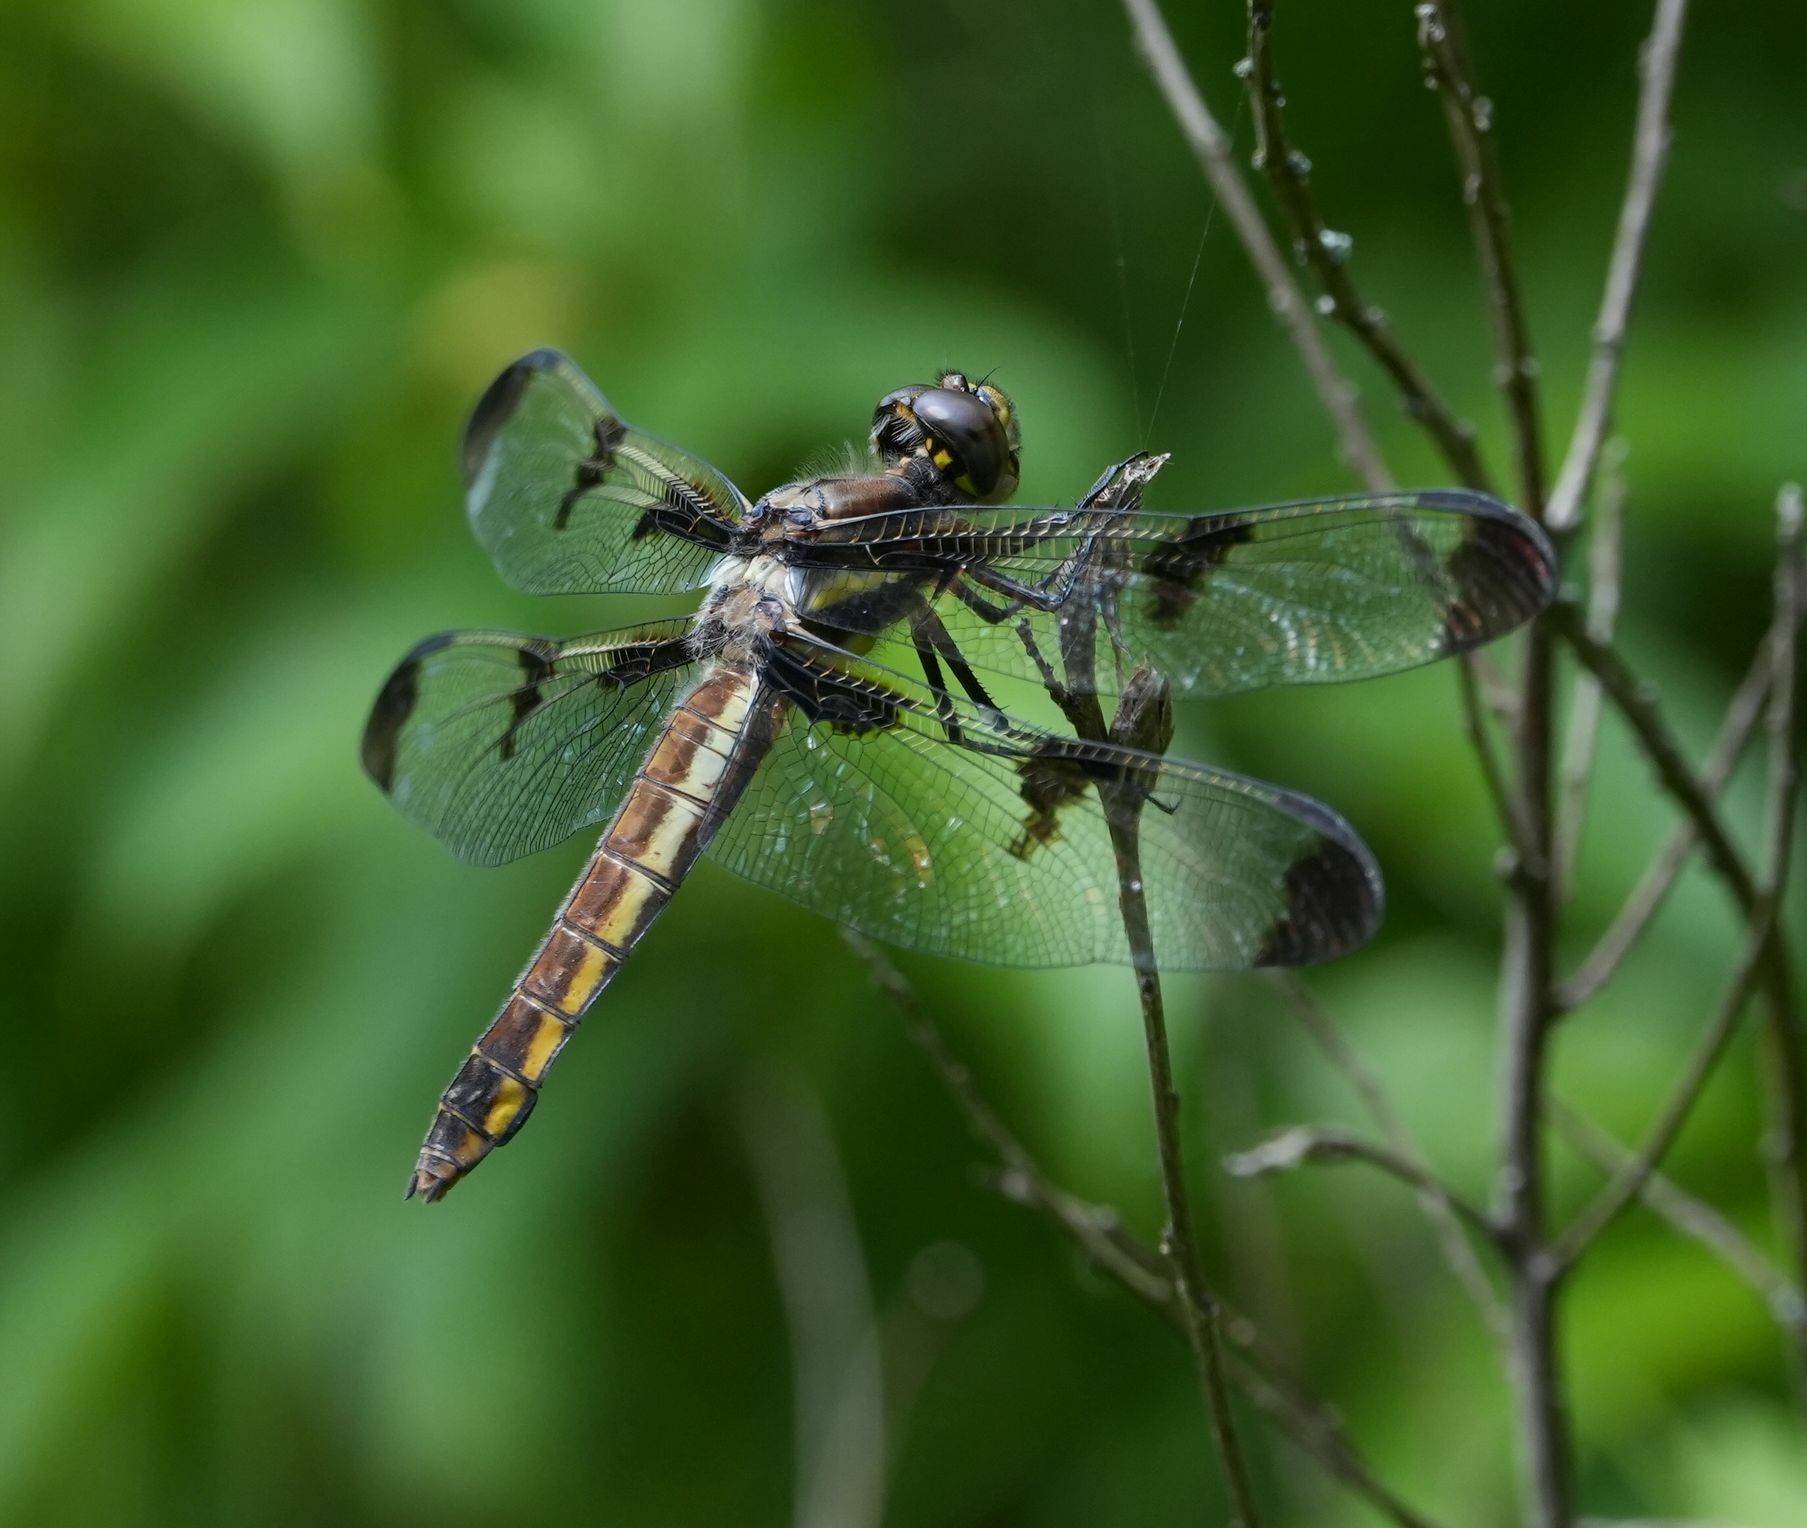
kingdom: Animalia
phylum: Arthropoda
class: Insecta
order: Odonata
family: Libellulidae
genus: Libellula
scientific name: Libellula pulchella
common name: Twelve-spotted skimmer
